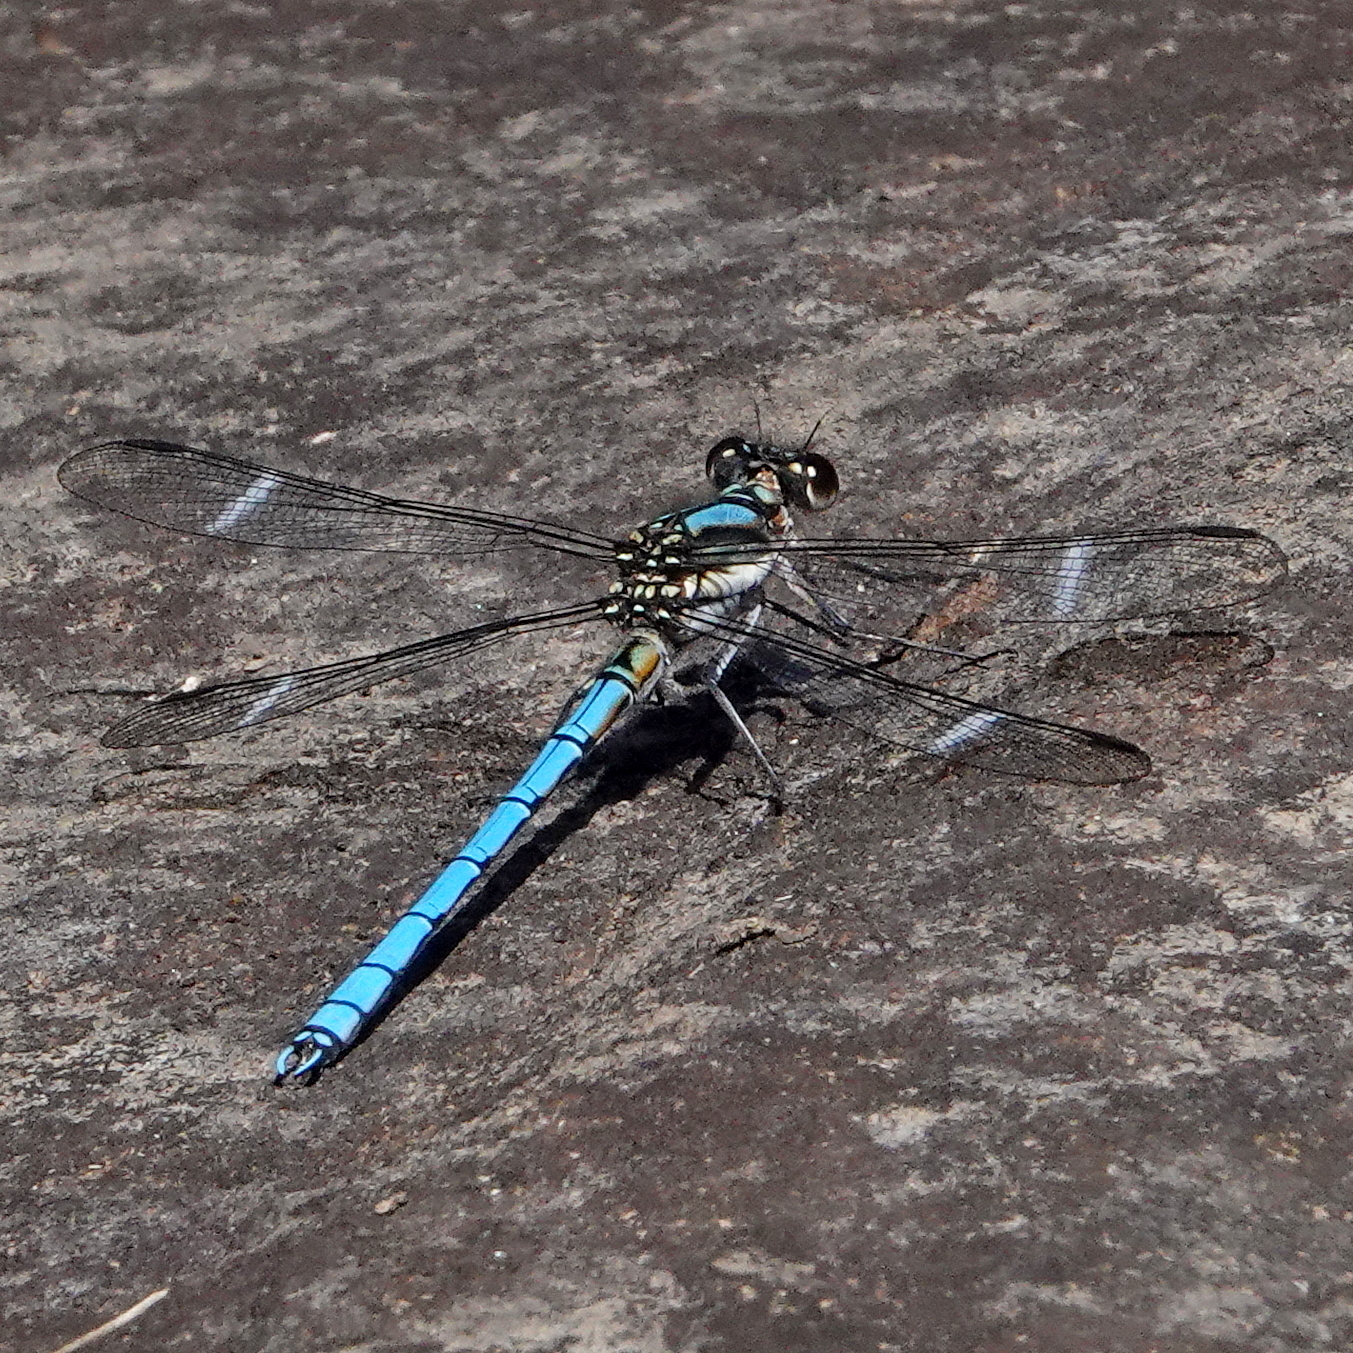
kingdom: Animalia
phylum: Arthropoda
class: Insecta
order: Odonata
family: Lestoideidae
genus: Diphlebia
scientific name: Diphlebia lestoides
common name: Whitewater rockmaster
